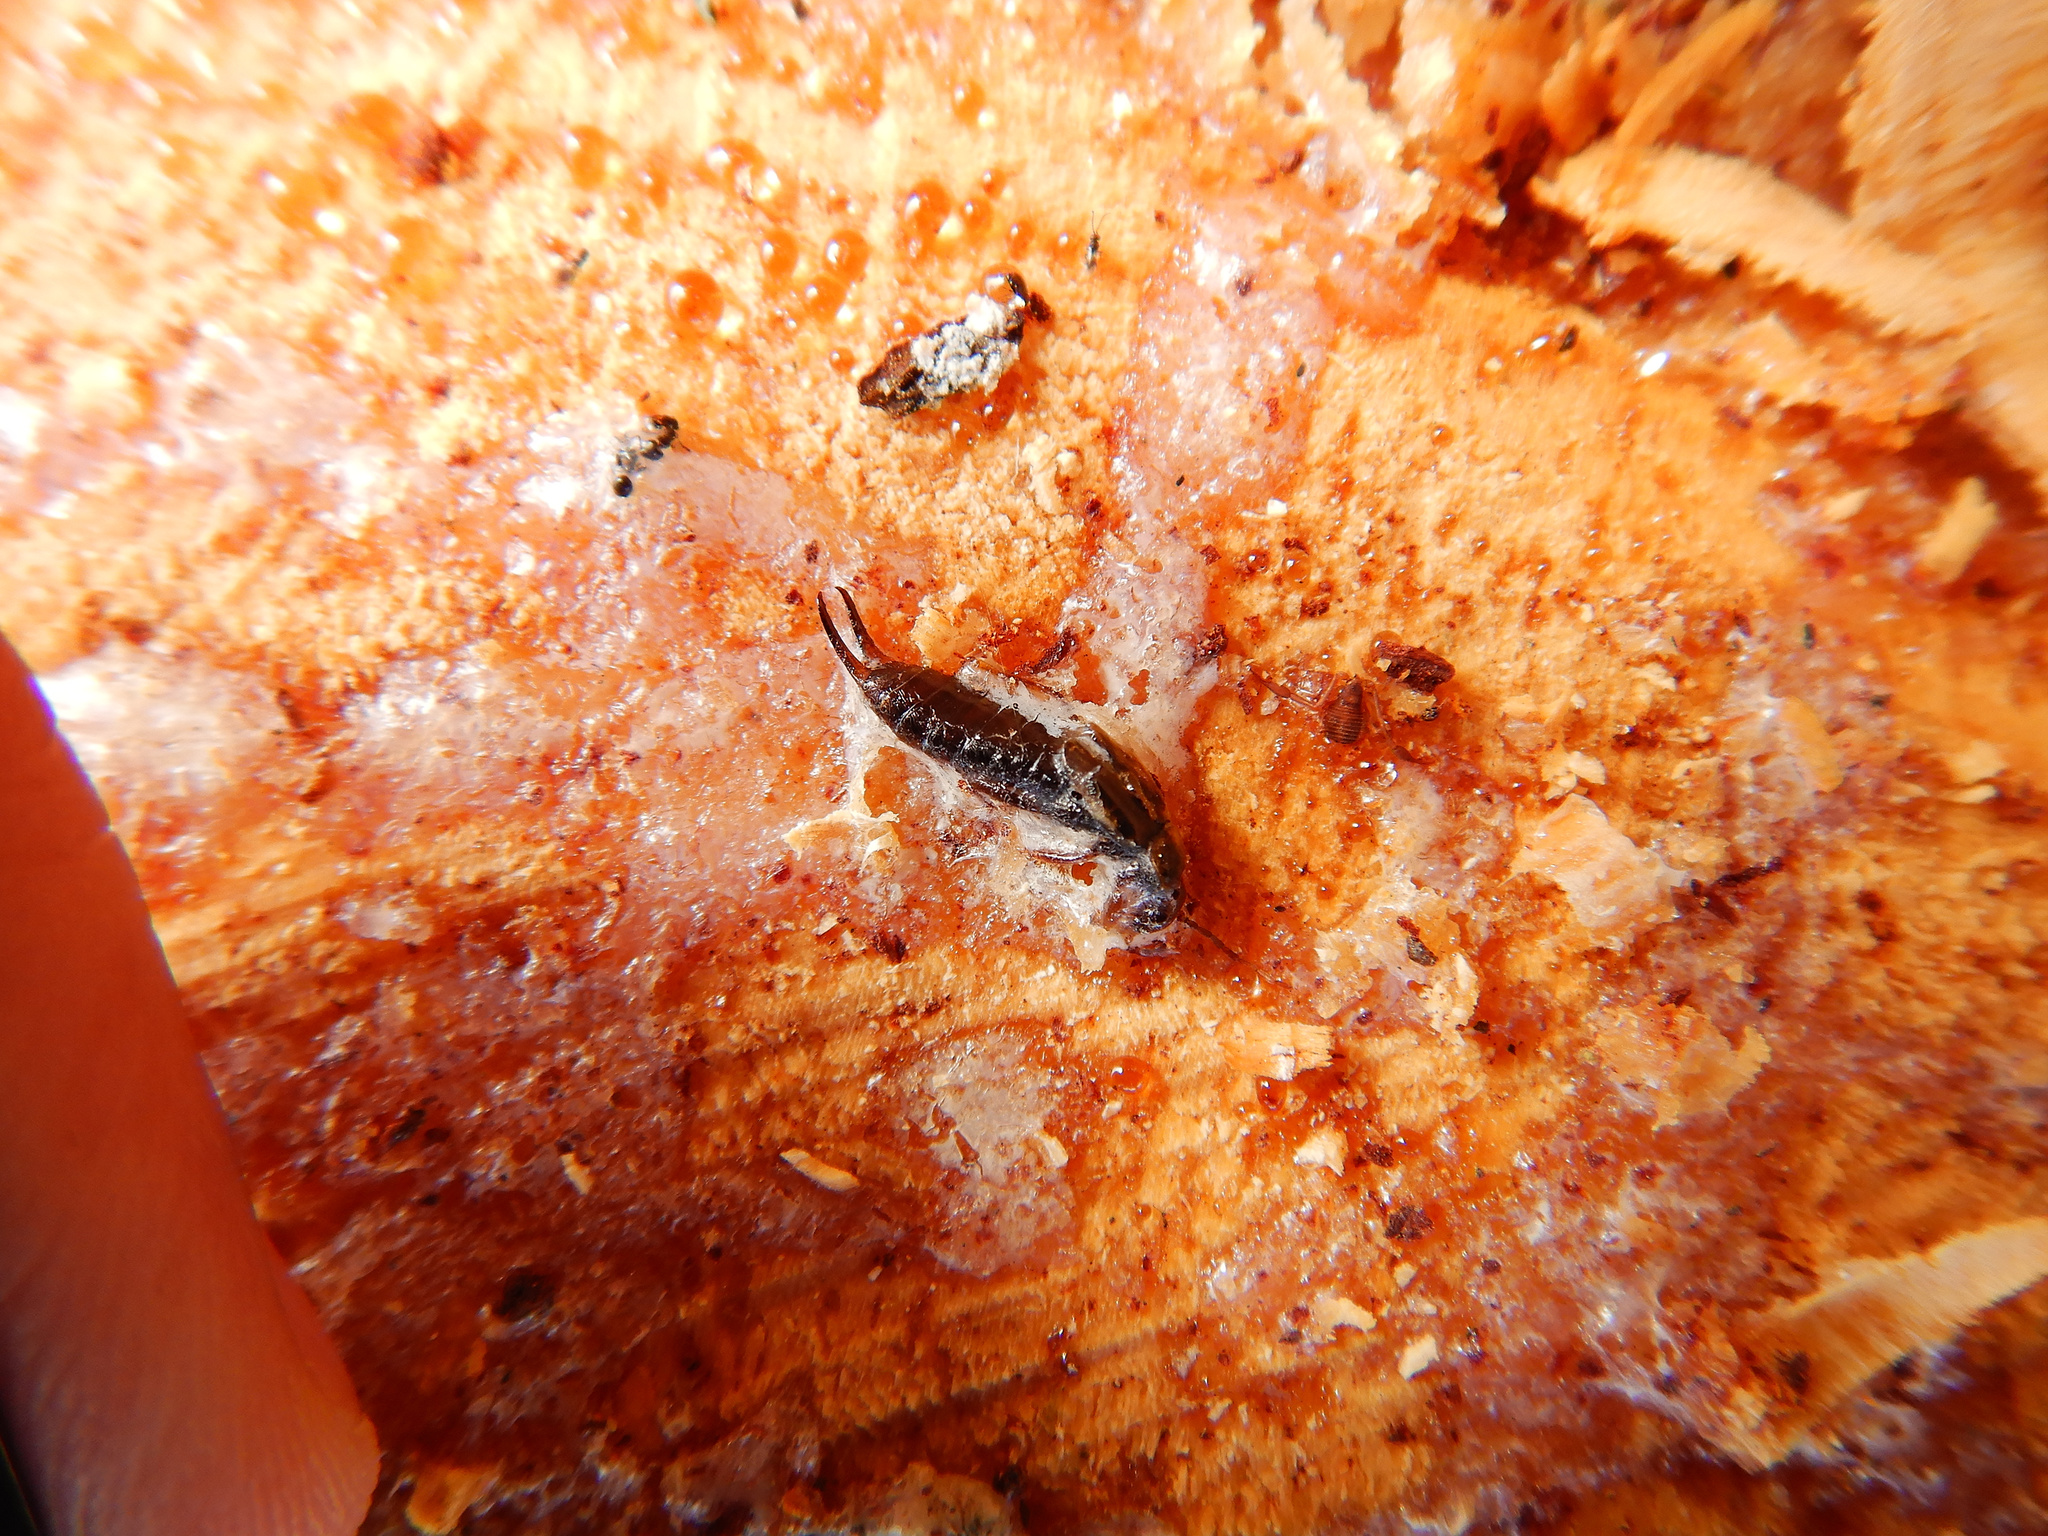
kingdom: Animalia
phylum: Arthropoda
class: Insecta
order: Dermaptera
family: Forficulidae
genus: Forficula
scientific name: Forficula
